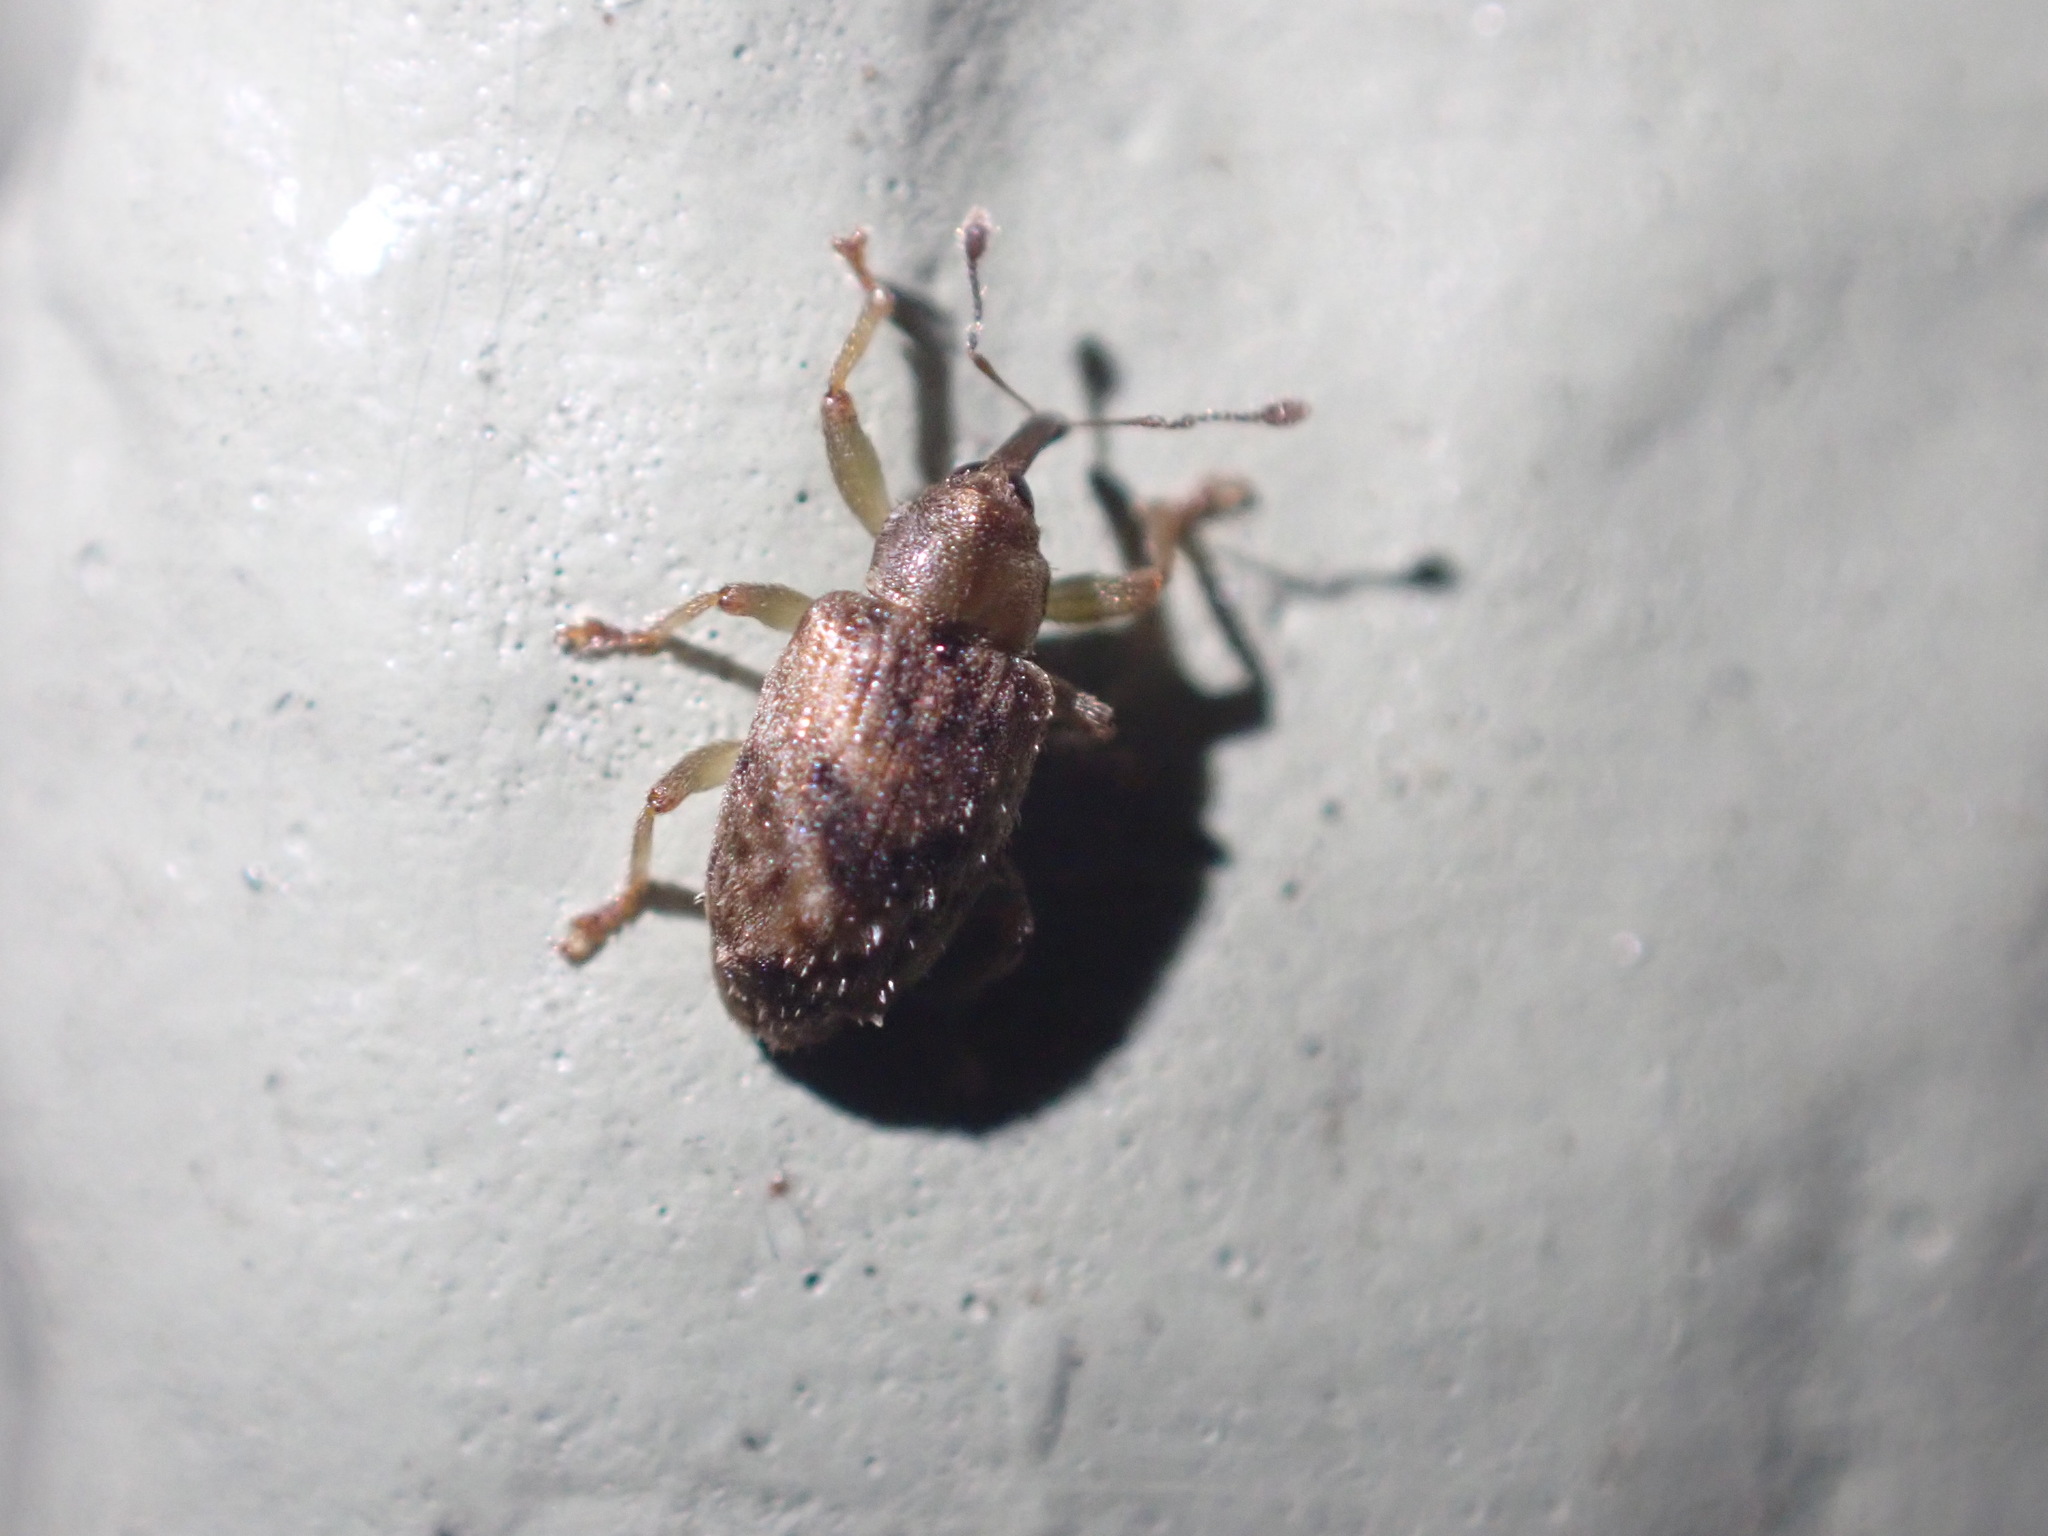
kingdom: Animalia
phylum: Arthropoda
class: Insecta
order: Coleoptera
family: Curculionidae
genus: Praolepra
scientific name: Praolepra infusca
